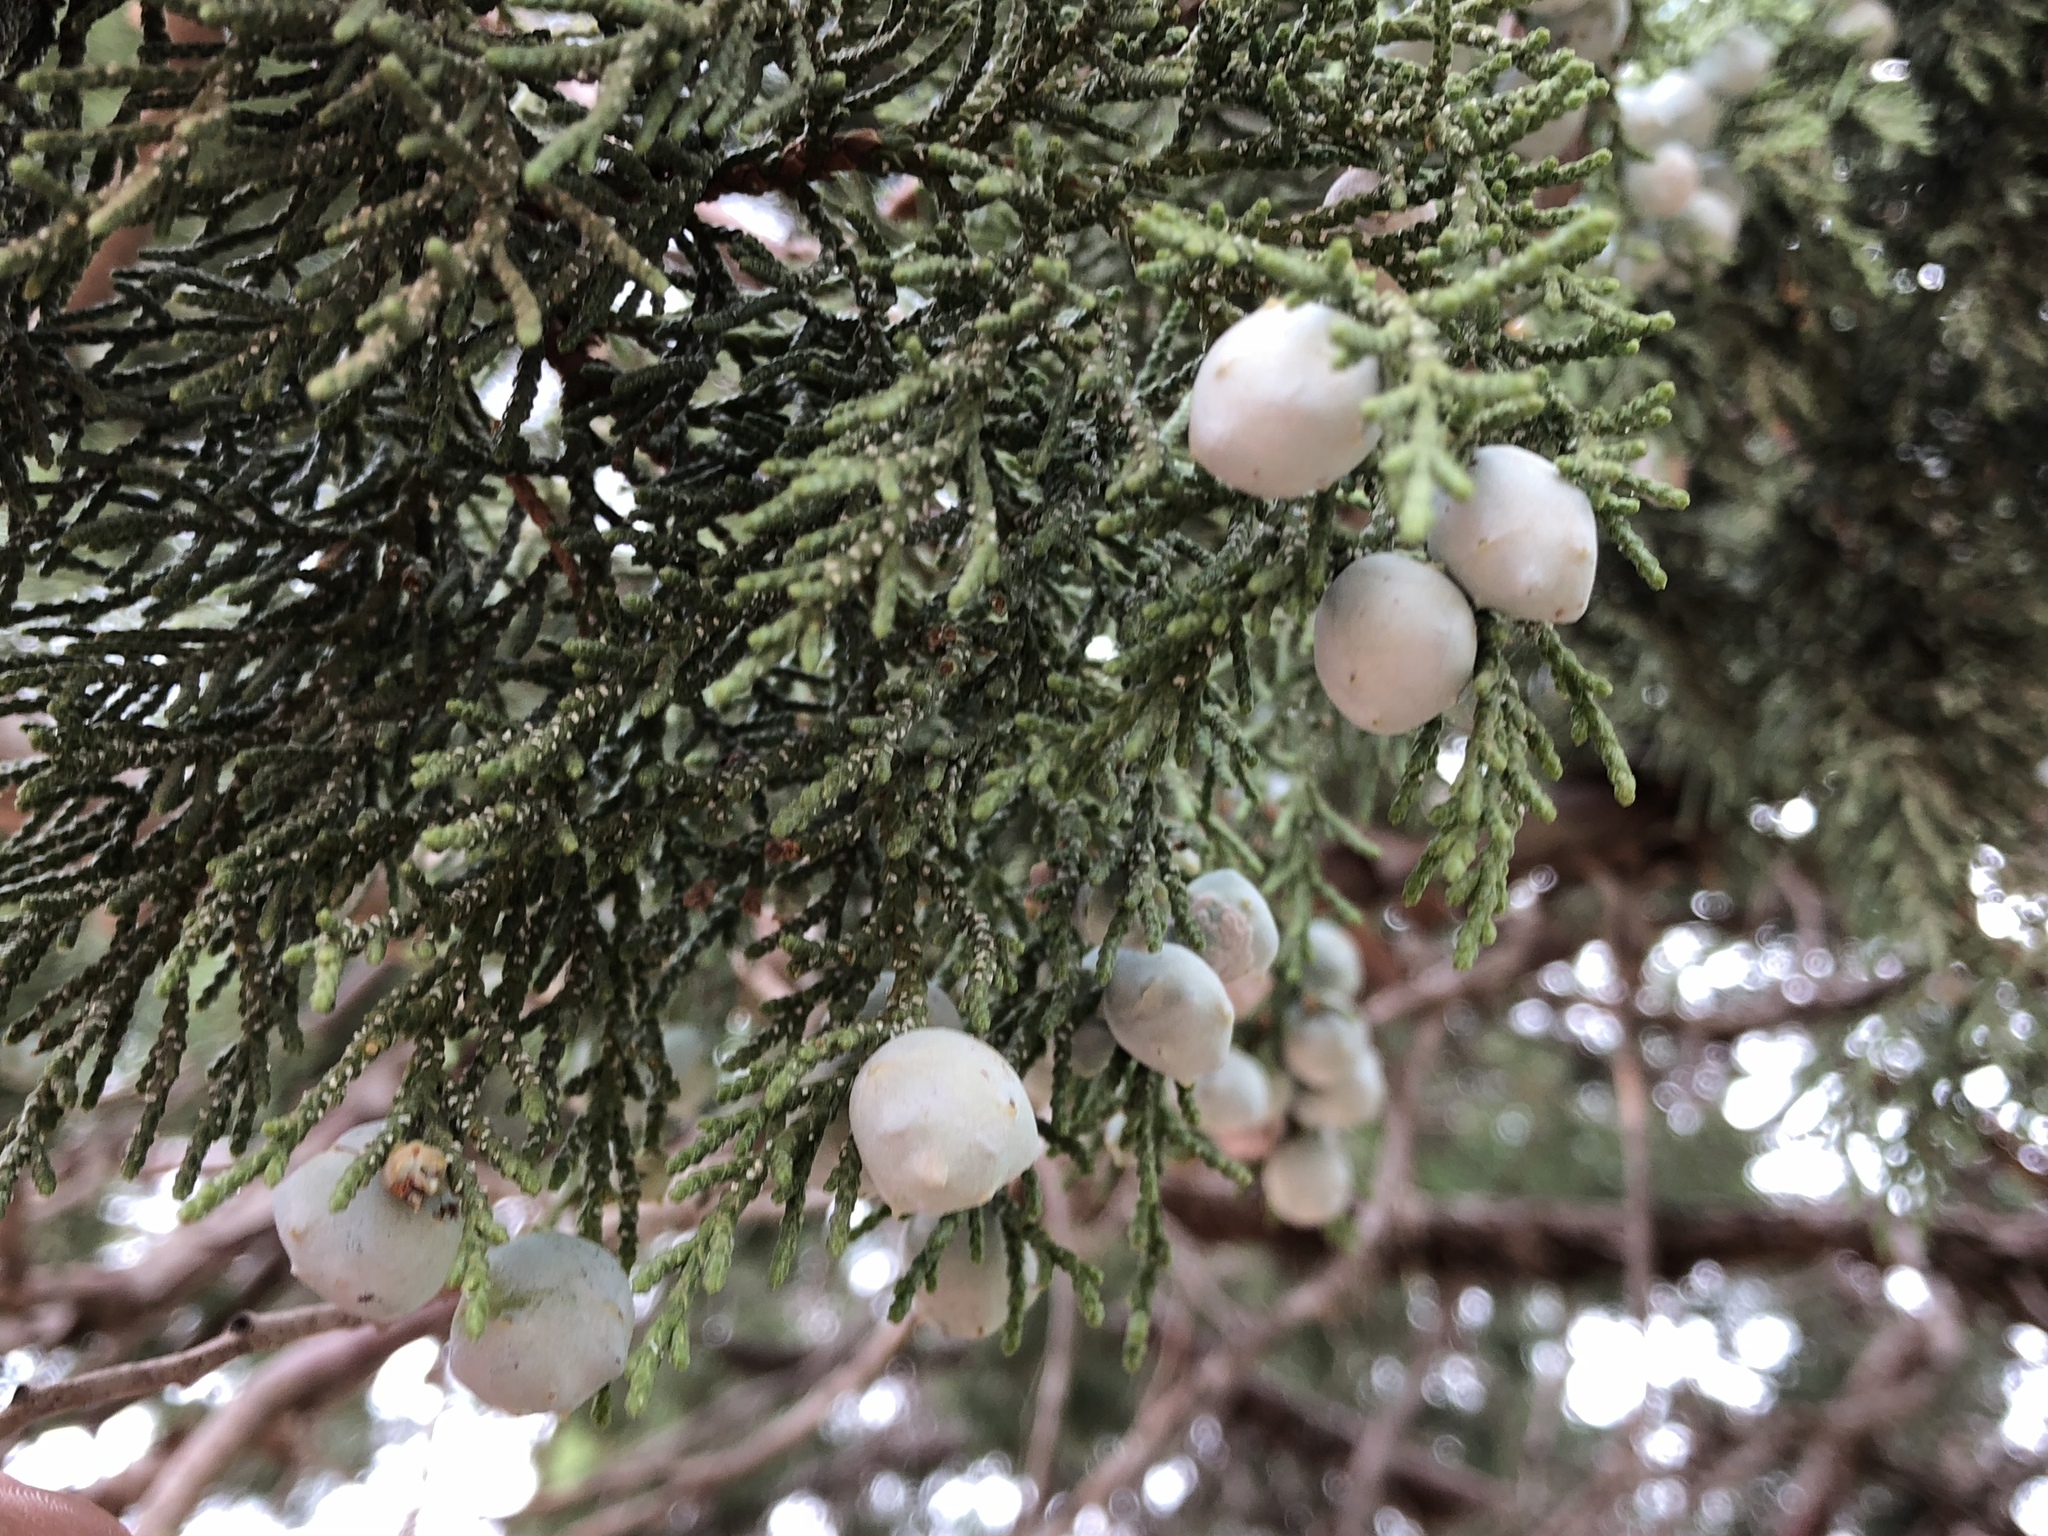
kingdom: Plantae
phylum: Tracheophyta
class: Pinopsida
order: Pinales
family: Cupressaceae
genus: Juniperus
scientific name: Juniperus deppeana
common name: Alligator juniper
